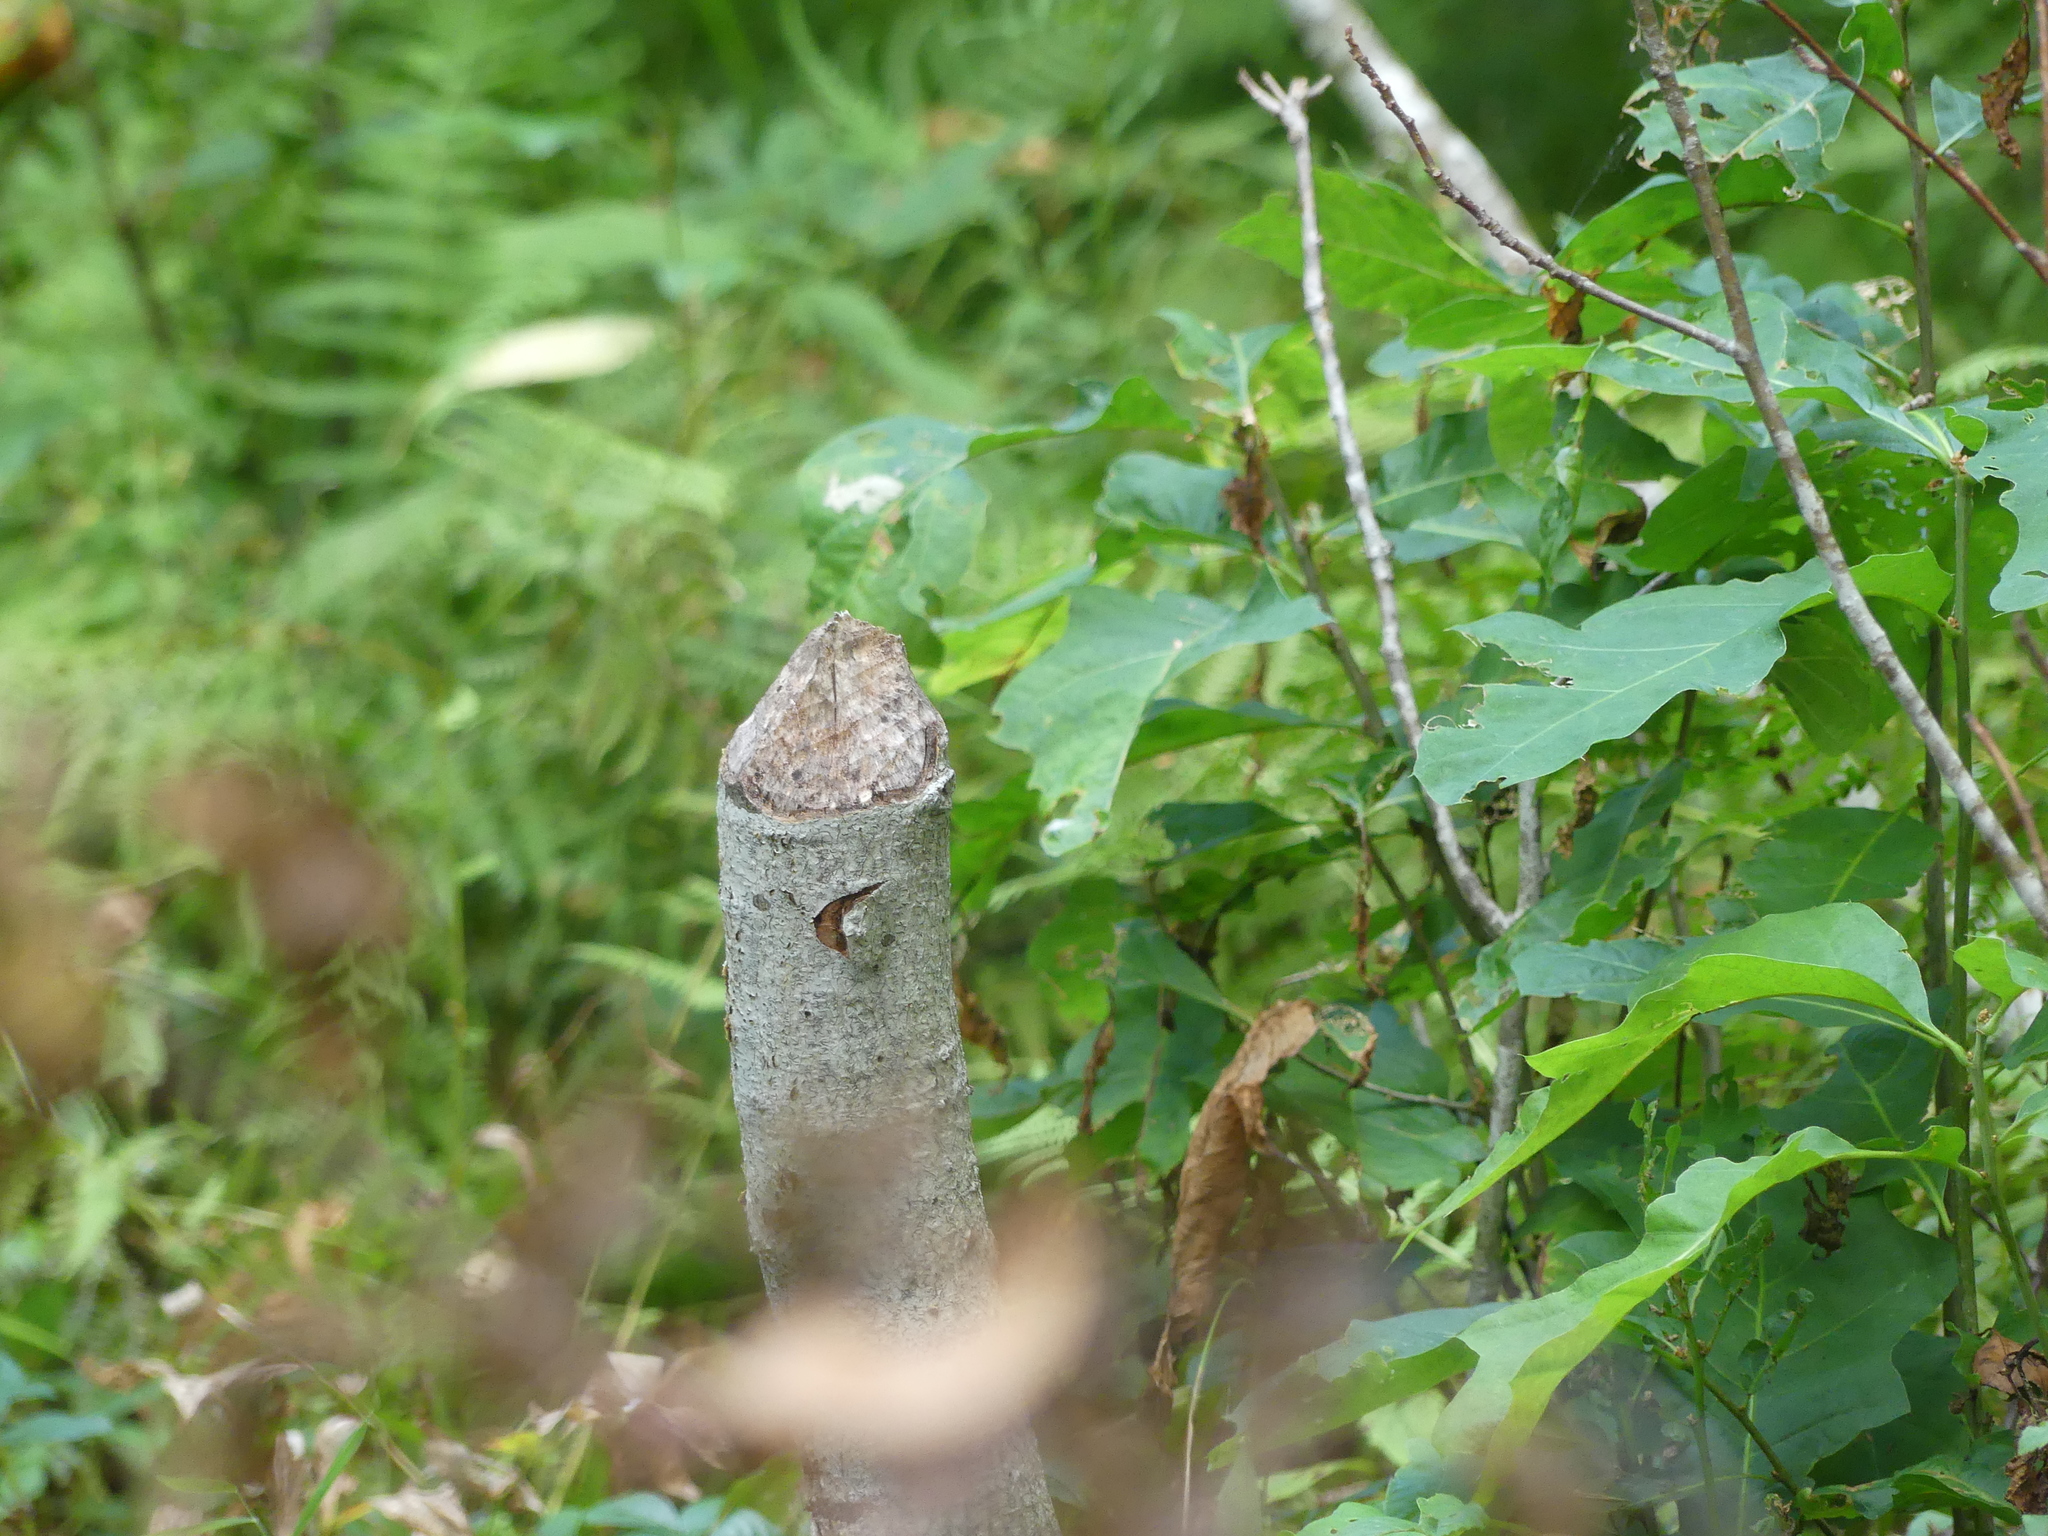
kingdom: Animalia
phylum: Chordata
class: Mammalia
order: Rodentia
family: Castoridae
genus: Castor
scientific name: Castor canadensis
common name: American beaver
